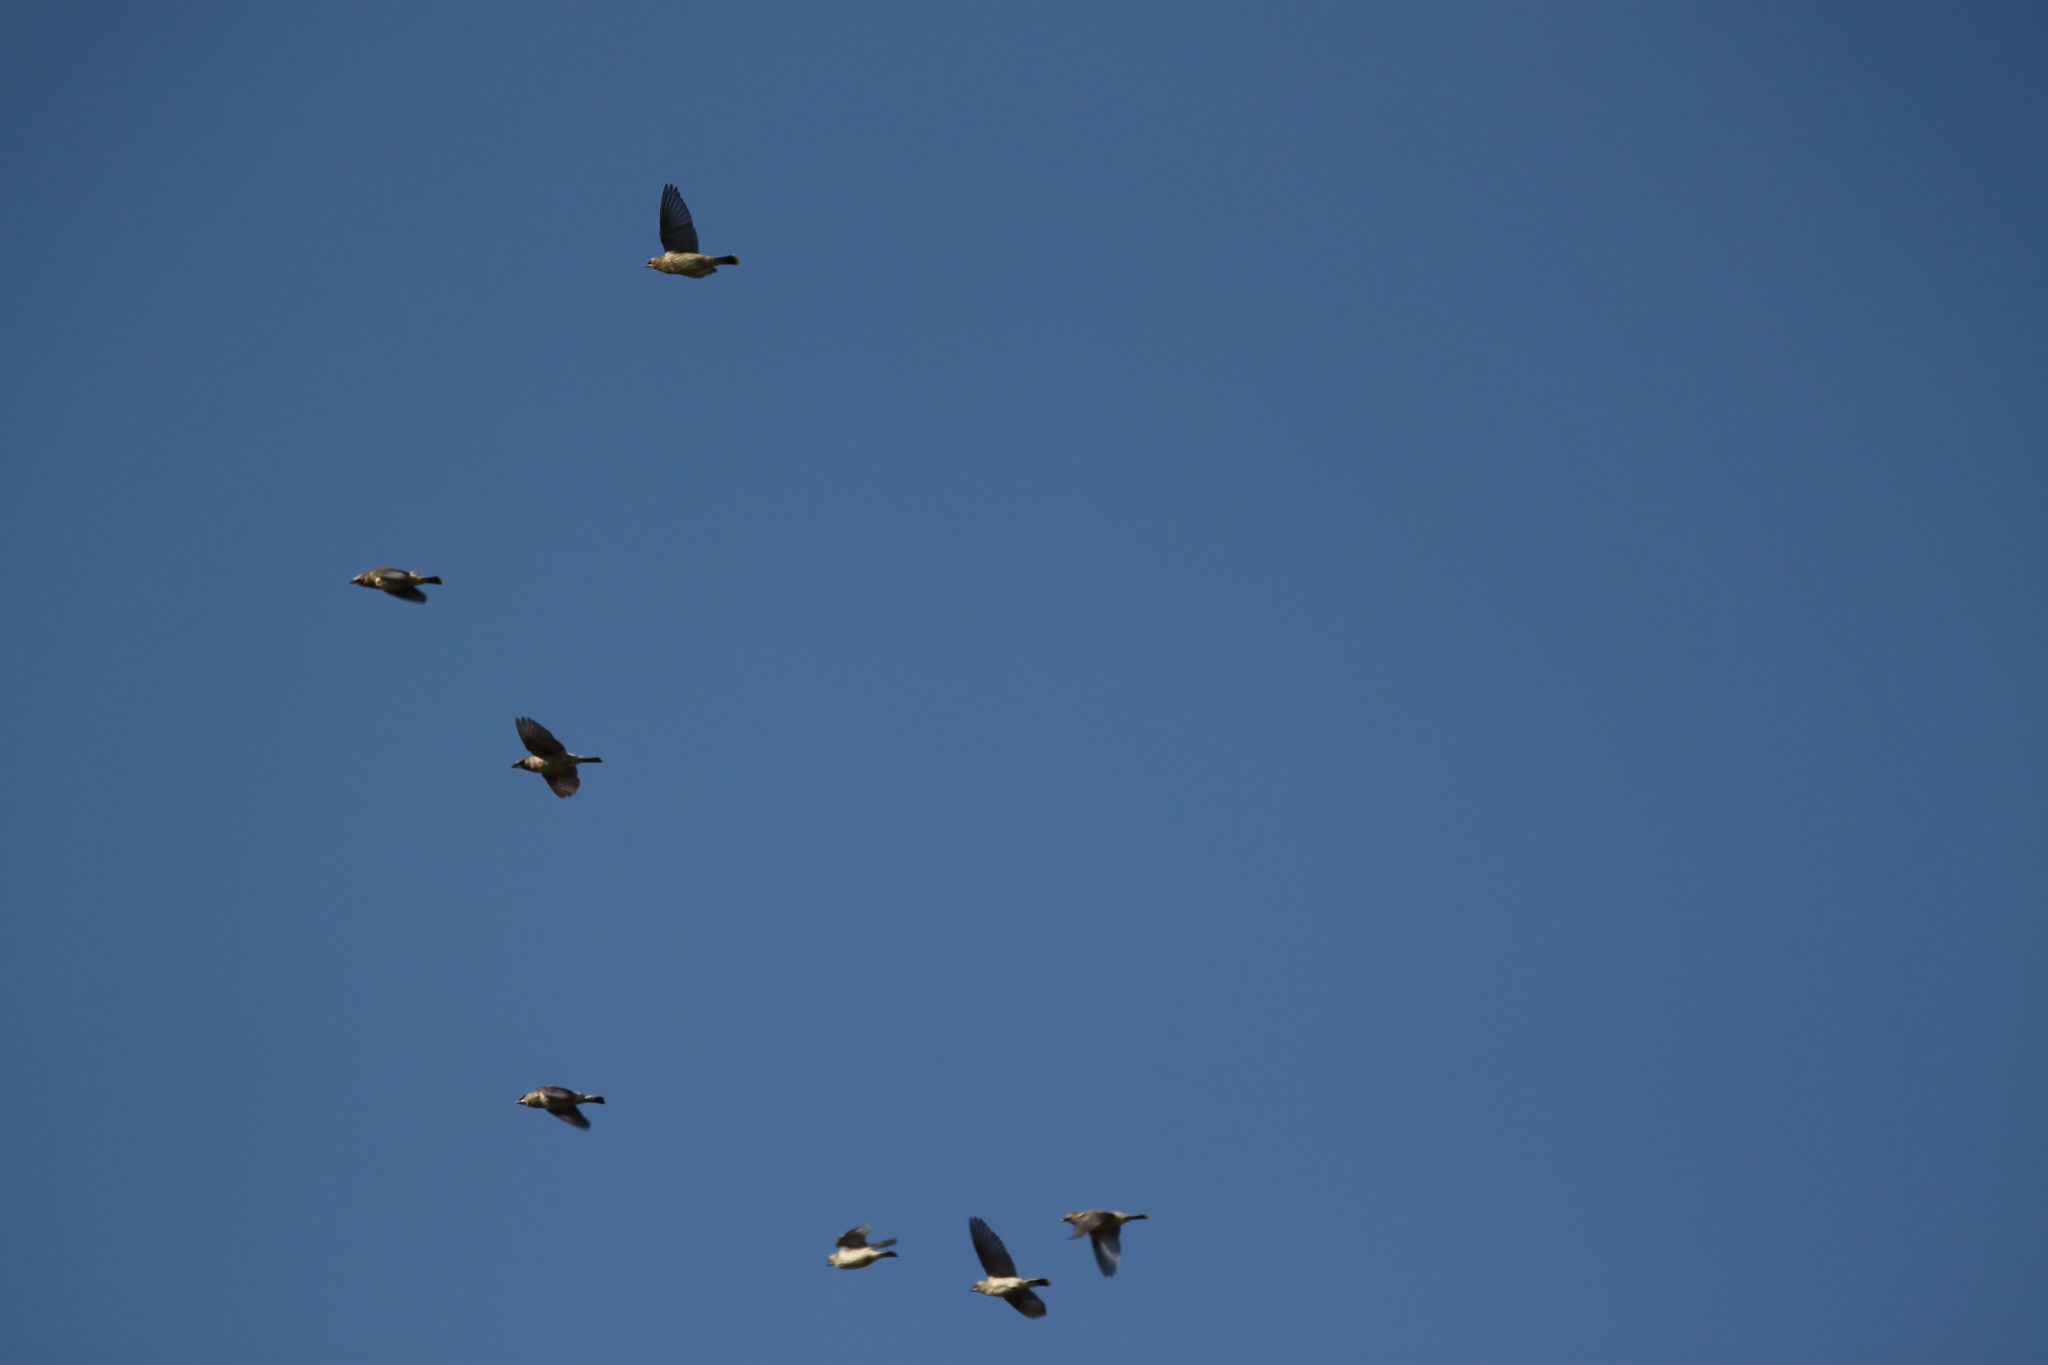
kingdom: Animalia
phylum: Chordata
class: Aves
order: Passeriformes
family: Bombycillidae
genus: Bombycilla
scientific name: Bombycilla cedrorum
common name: Cedar waxwing
